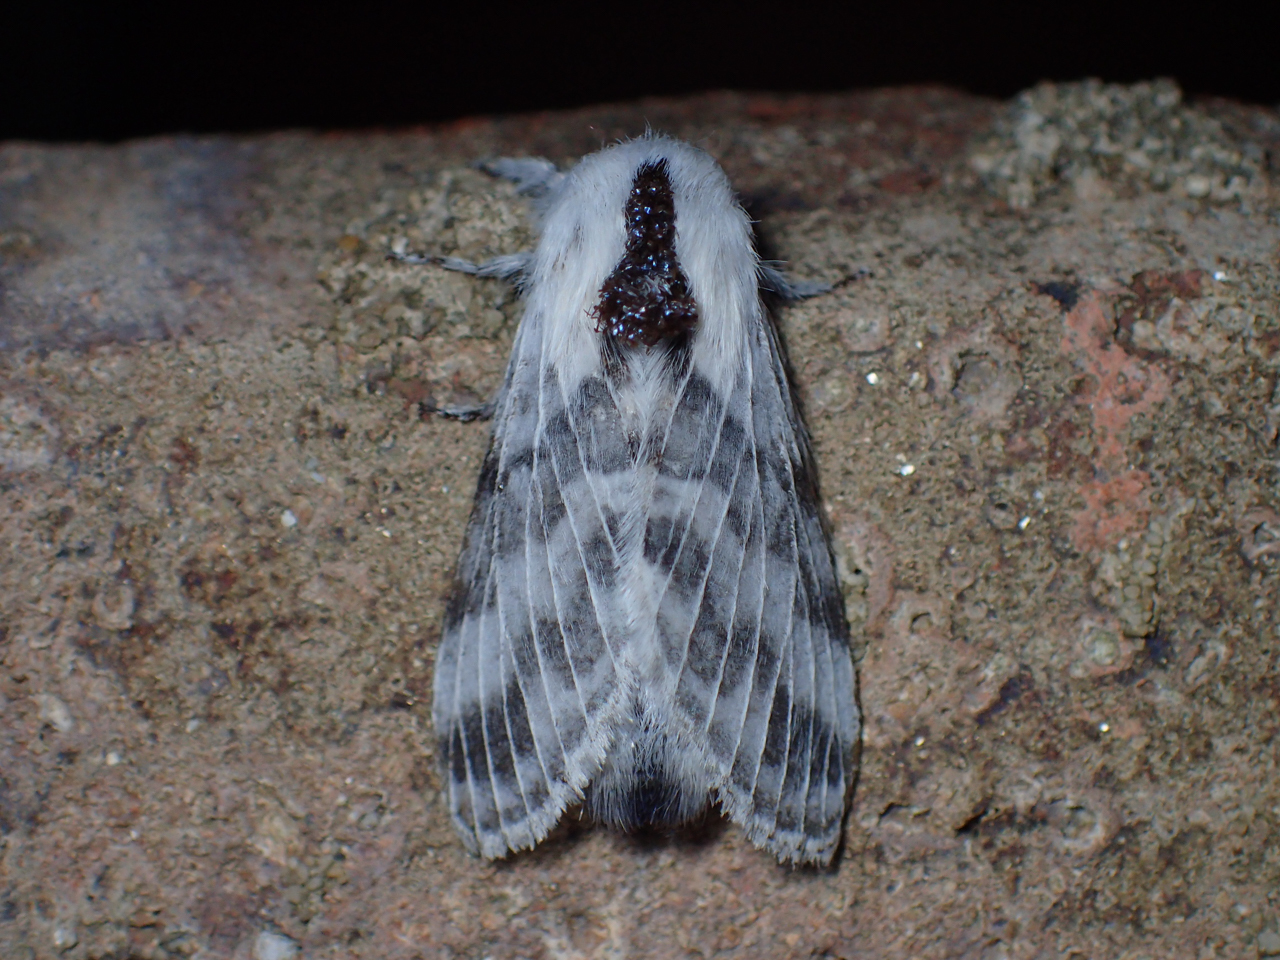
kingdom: Animalia
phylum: Arthropoda
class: Insecta
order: Lepidoptera
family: Lasiocampidae
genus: Tolype
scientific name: Tolype notialis
